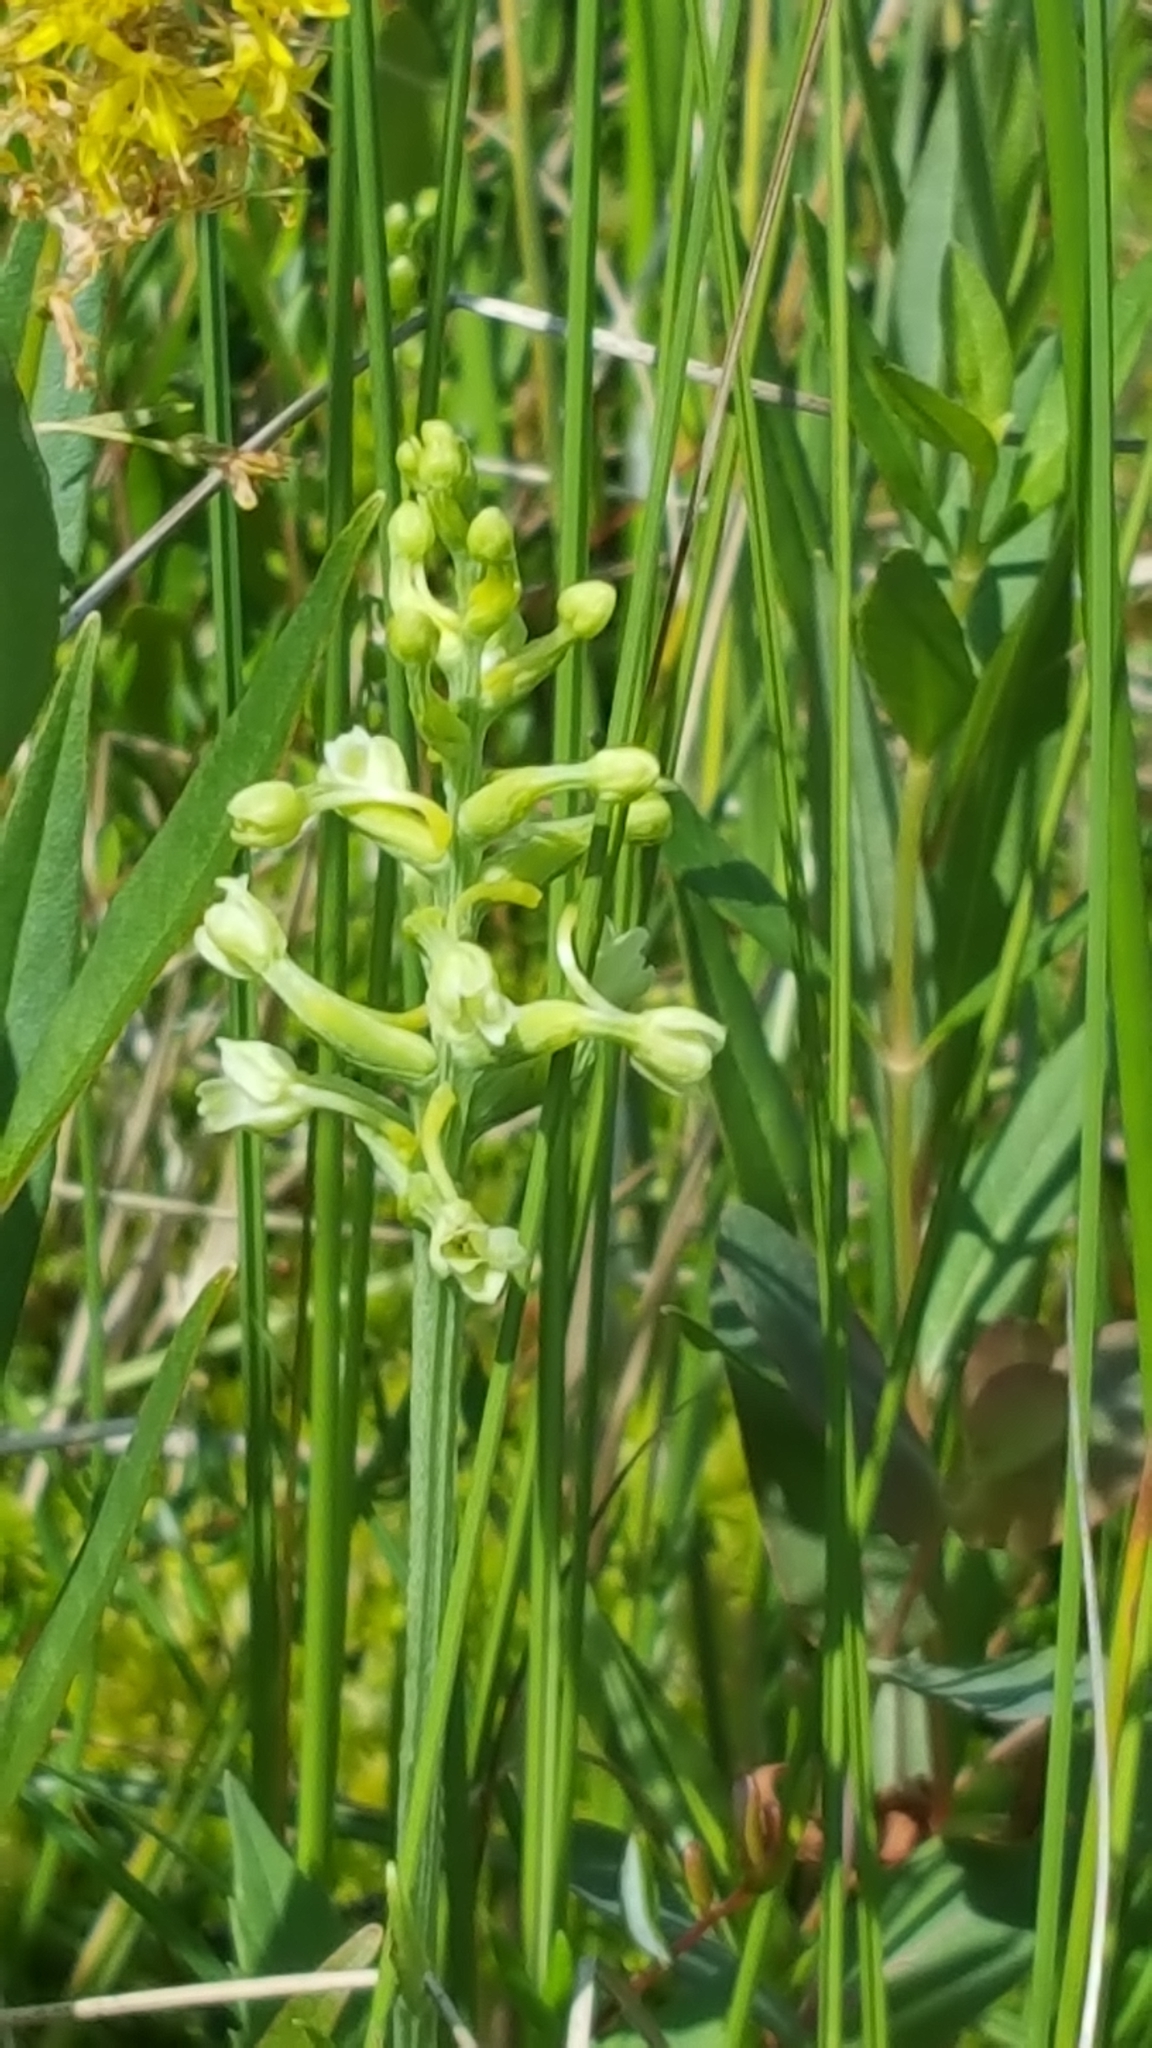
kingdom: Plantae
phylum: Tracheophyta
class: Liliopsida
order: Asparagales
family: Orchidaceae
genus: Platanthera
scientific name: Platanthera clavellata
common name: Club-spur orchid
